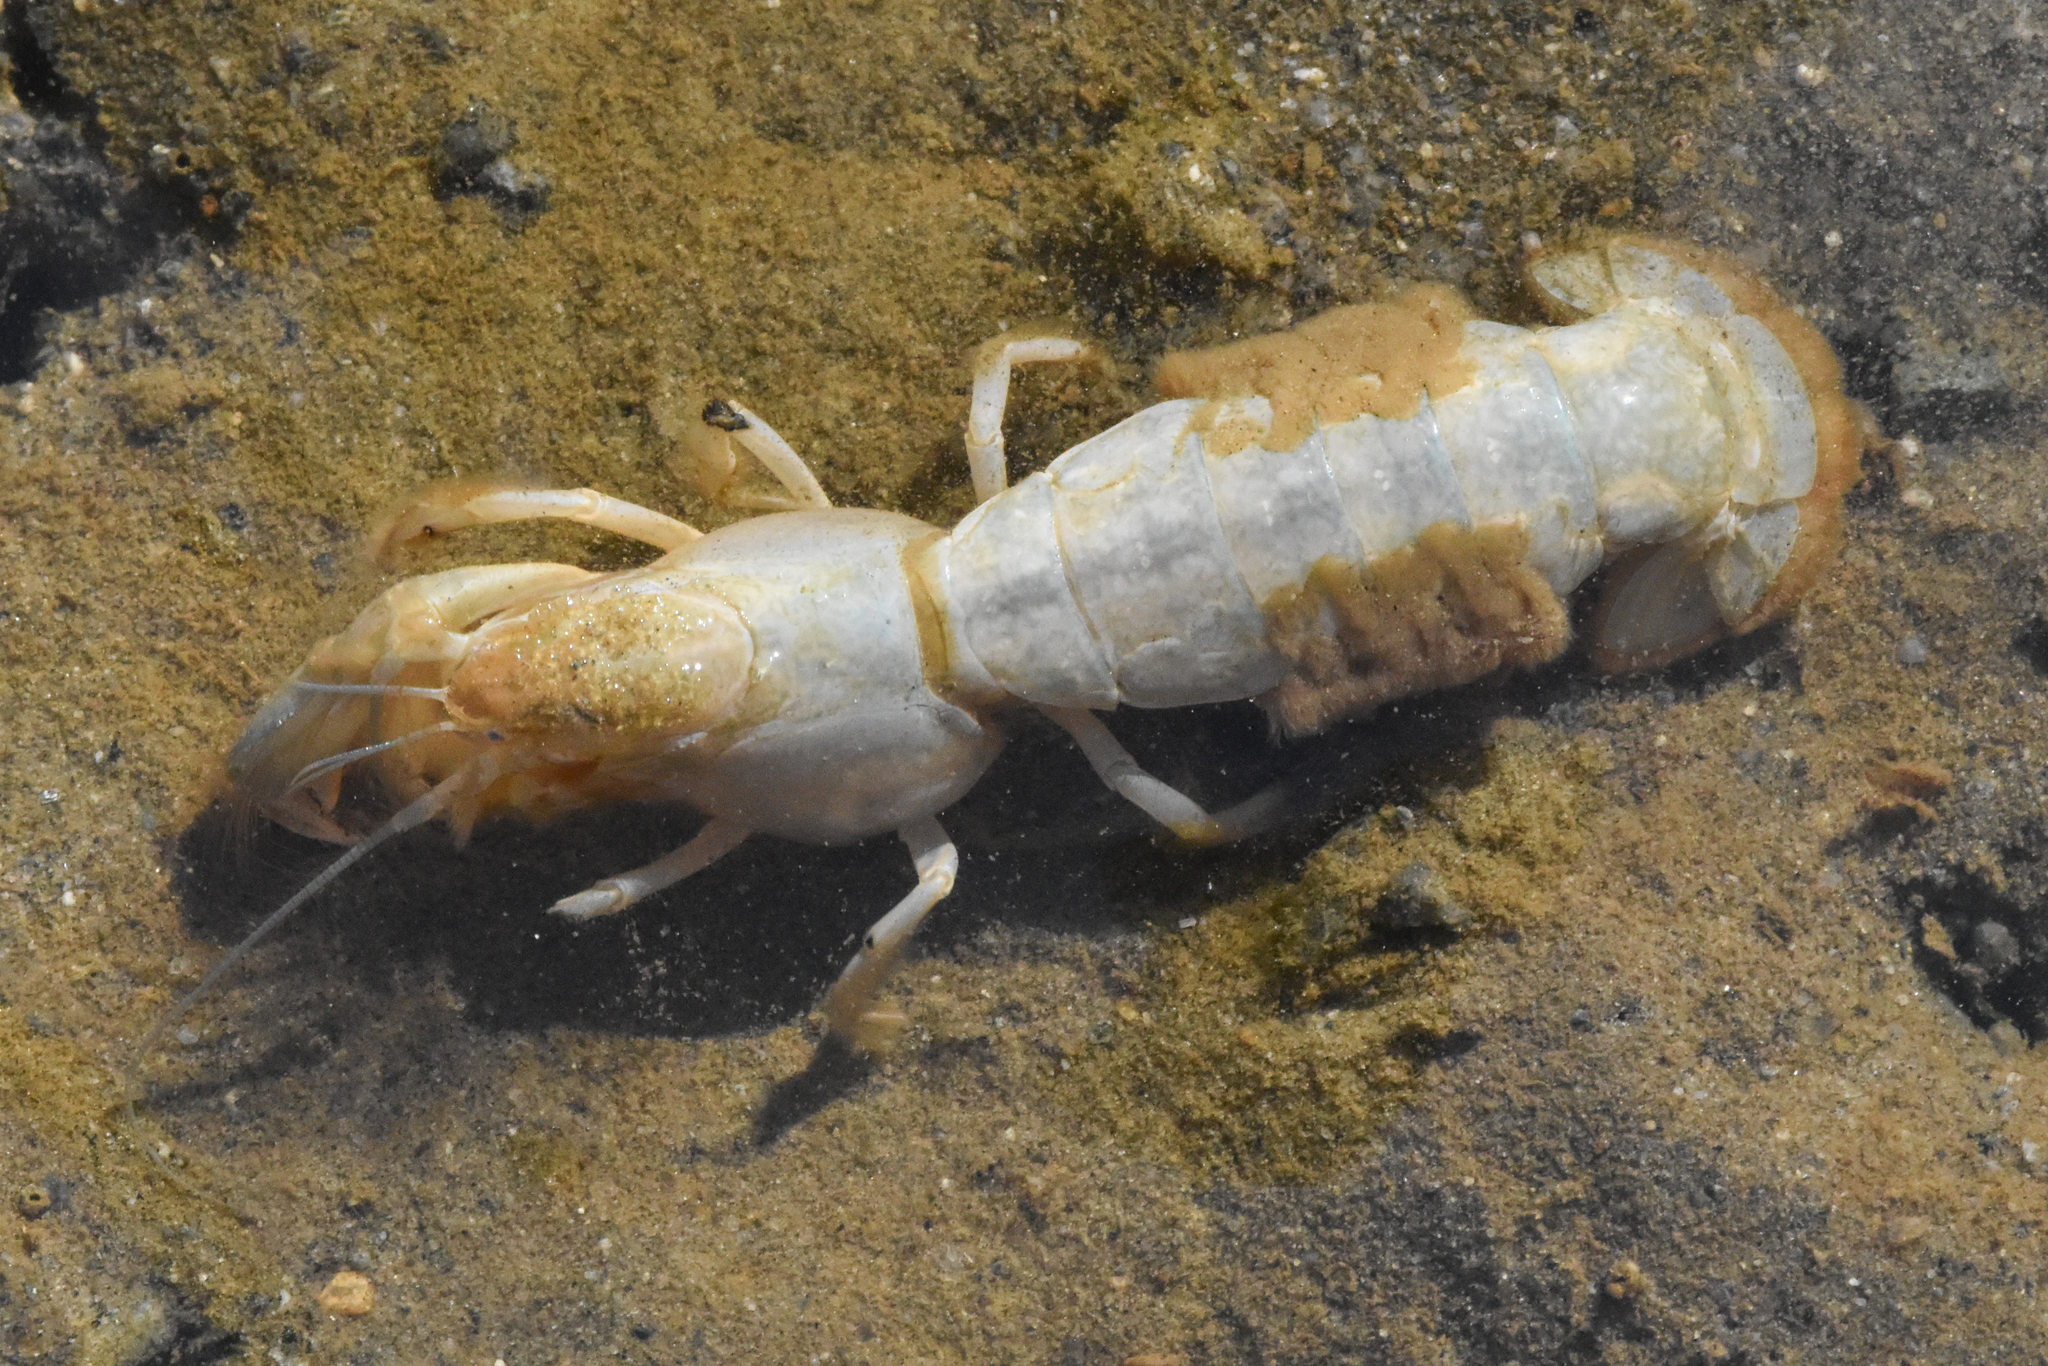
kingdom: Animalia
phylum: Arthropoda
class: Malacostraca
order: Decapoda
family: Upogebiidae
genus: Upogebia
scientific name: Upogebia pugettensis
